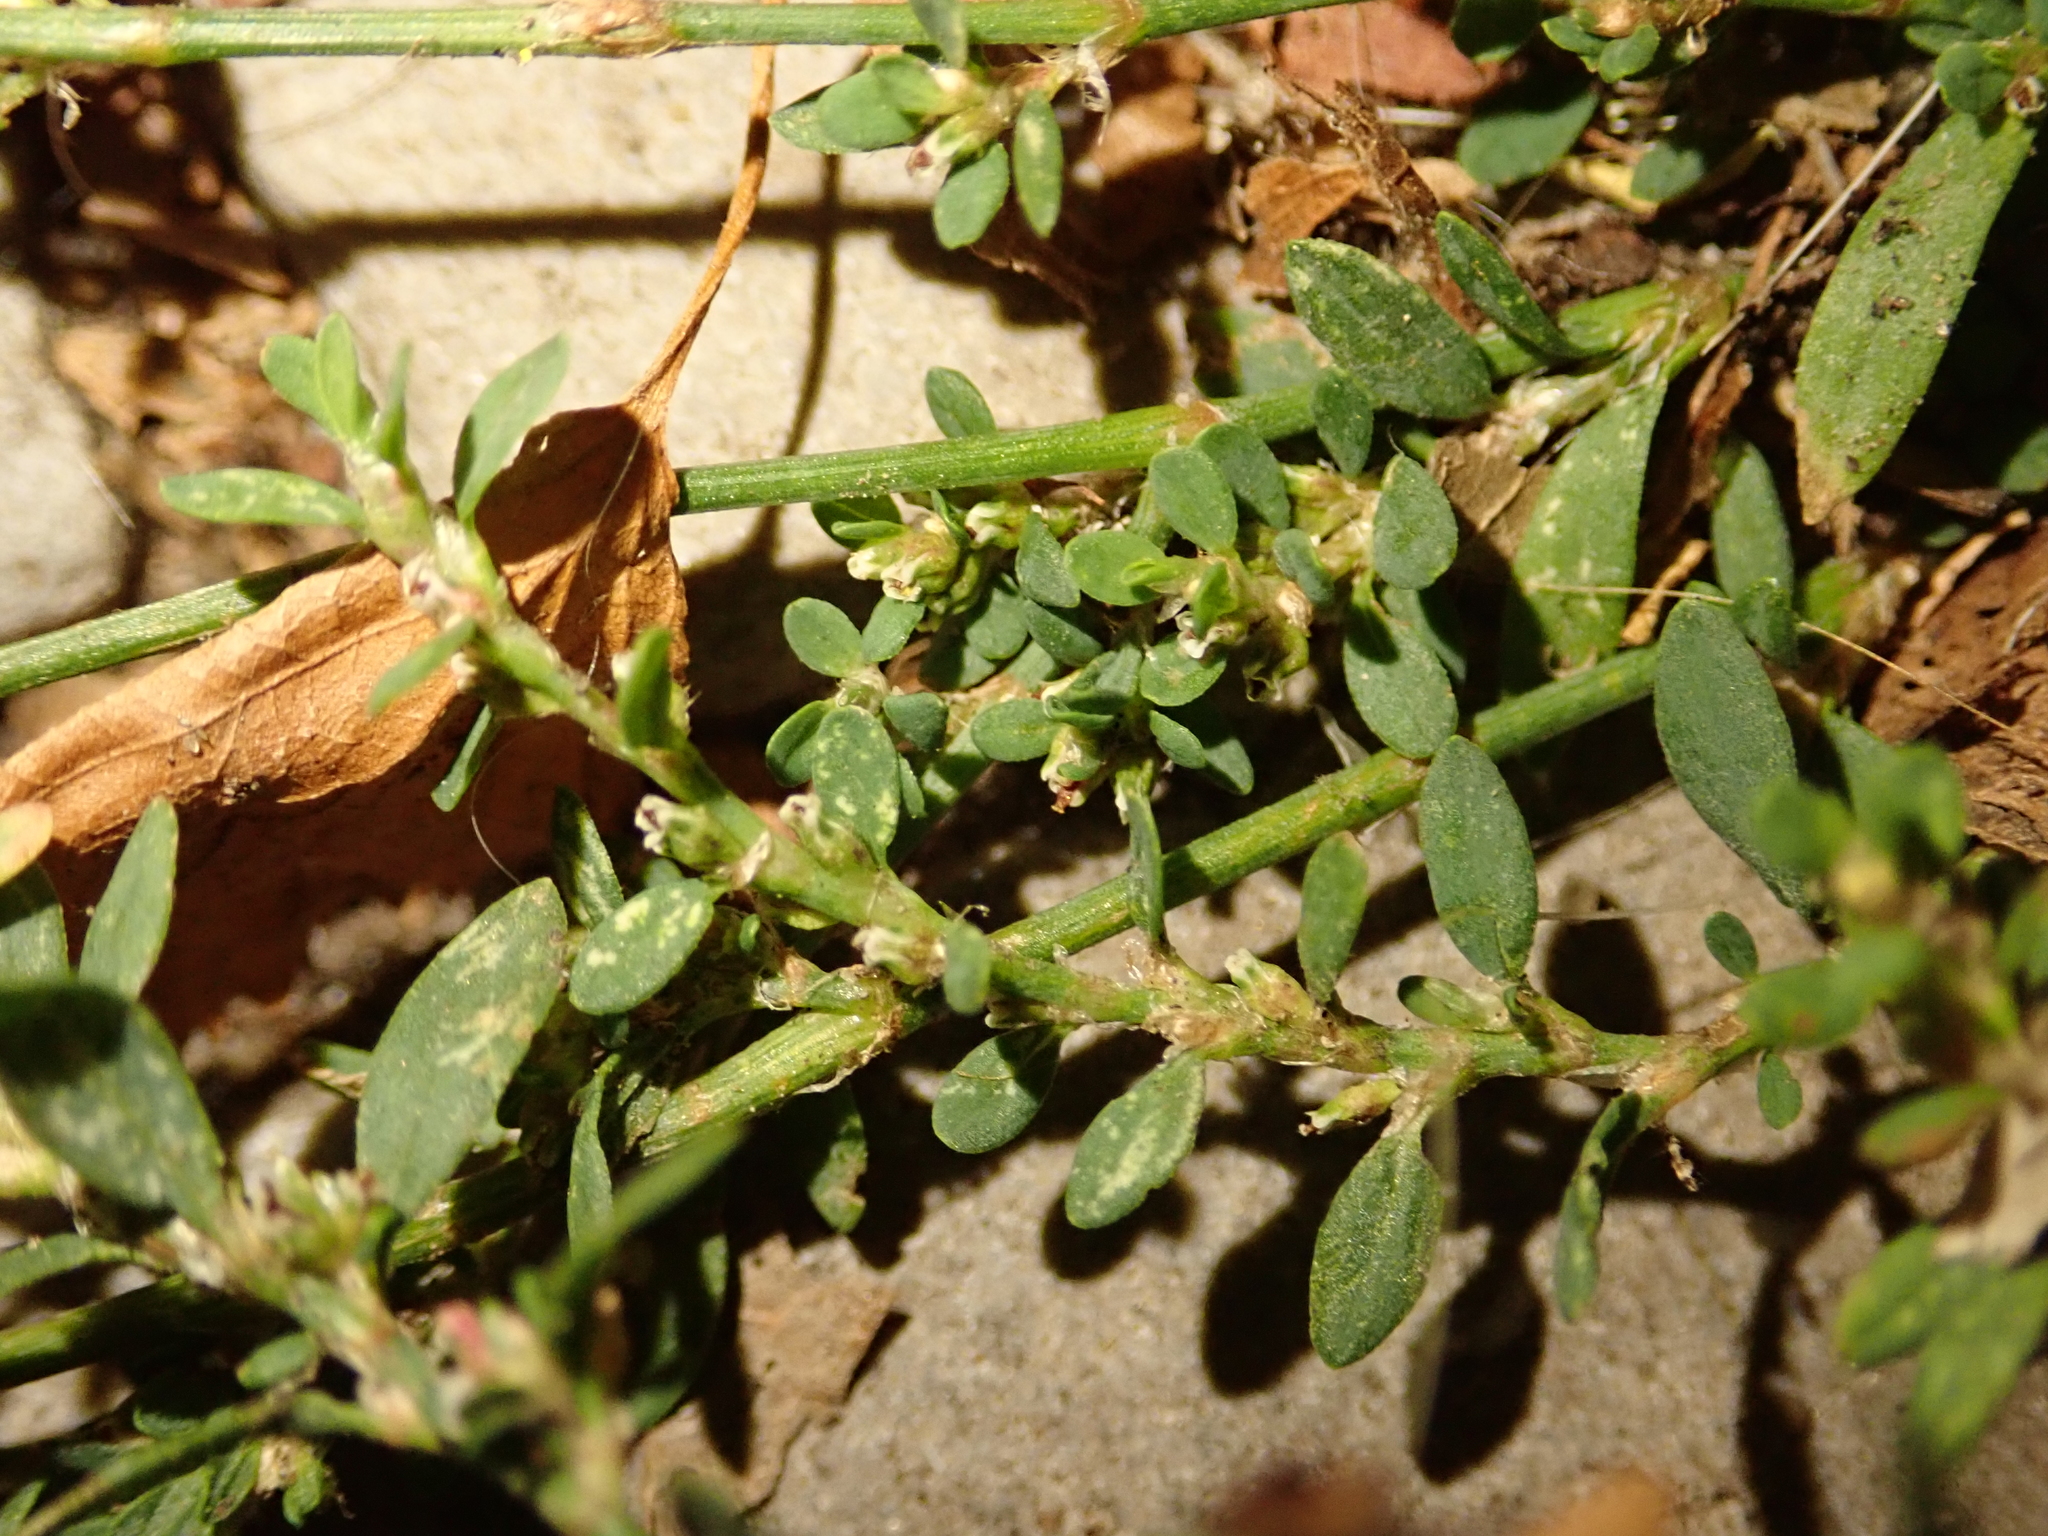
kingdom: Plantae
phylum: Tracheophyta
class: Magnoliopsida
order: Caryophyllales
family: Polygonaceae
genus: Polygonum
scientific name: Polygonum aviculare
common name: Prostrate knotweed
